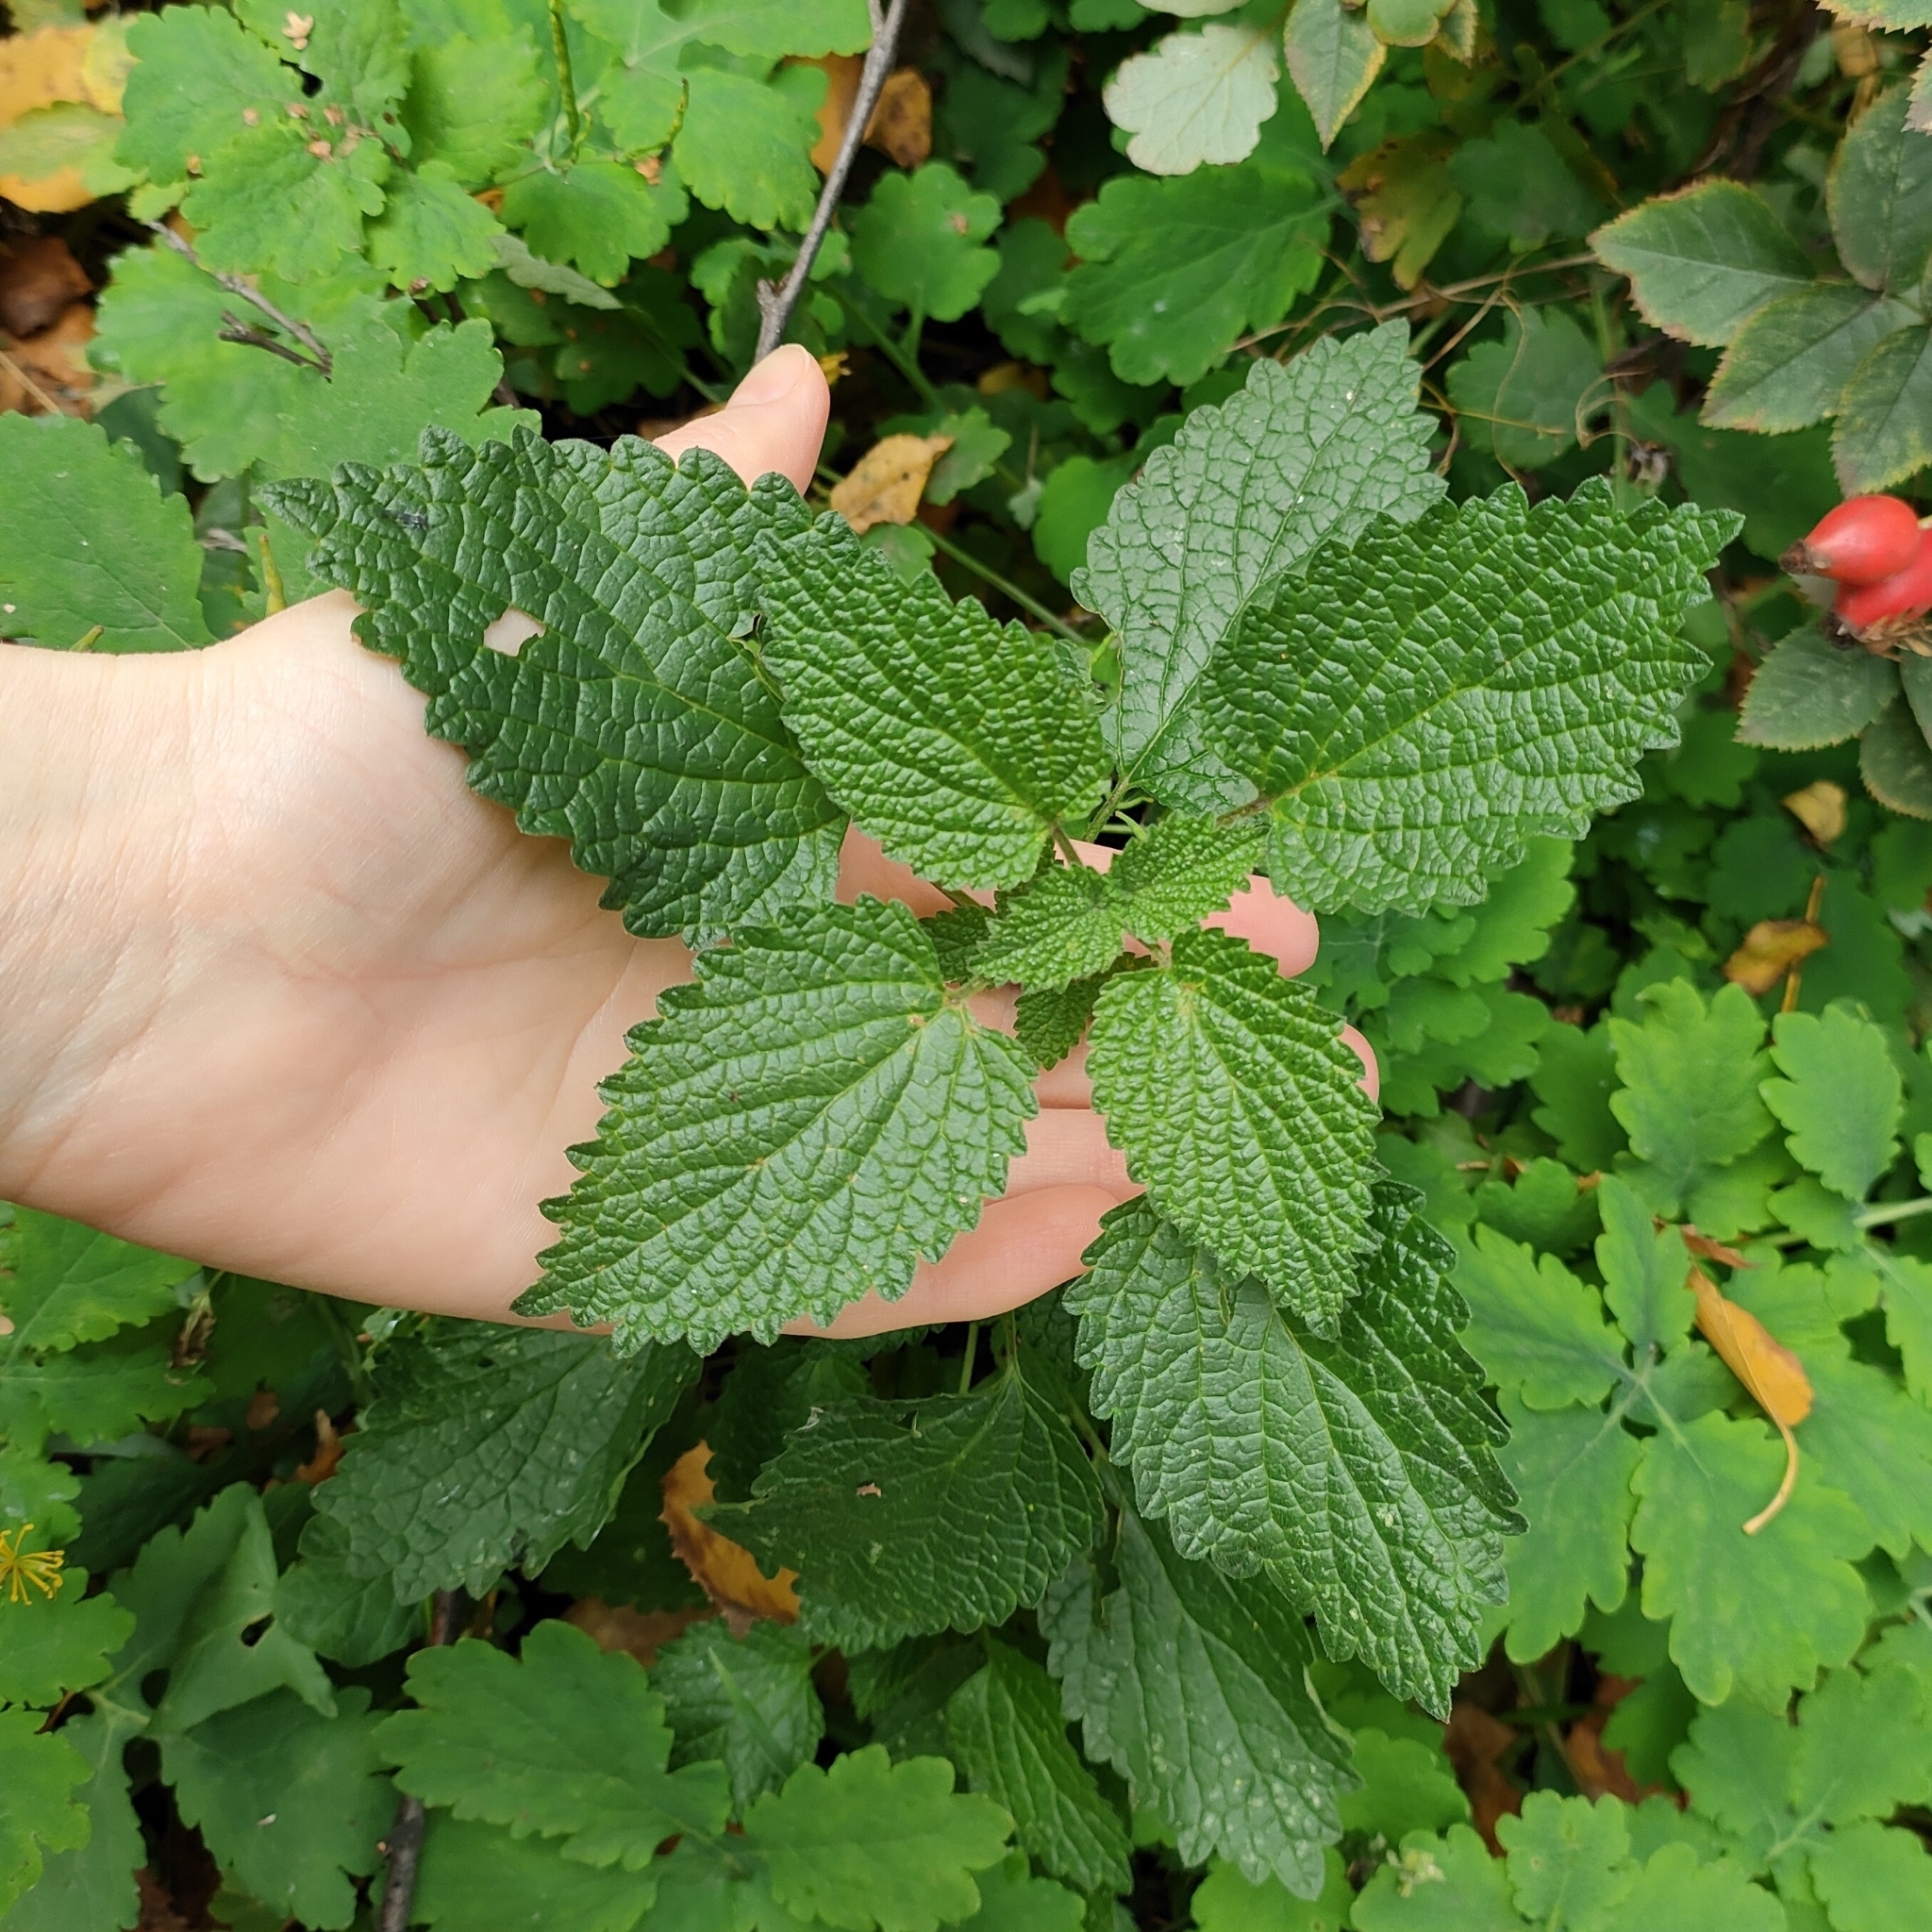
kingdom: Plantae
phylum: Tracheophyta
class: Magnoliopsida
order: Lamiales
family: Lamiaceae
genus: Ballota
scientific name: Ballota nigra
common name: Black horehound
